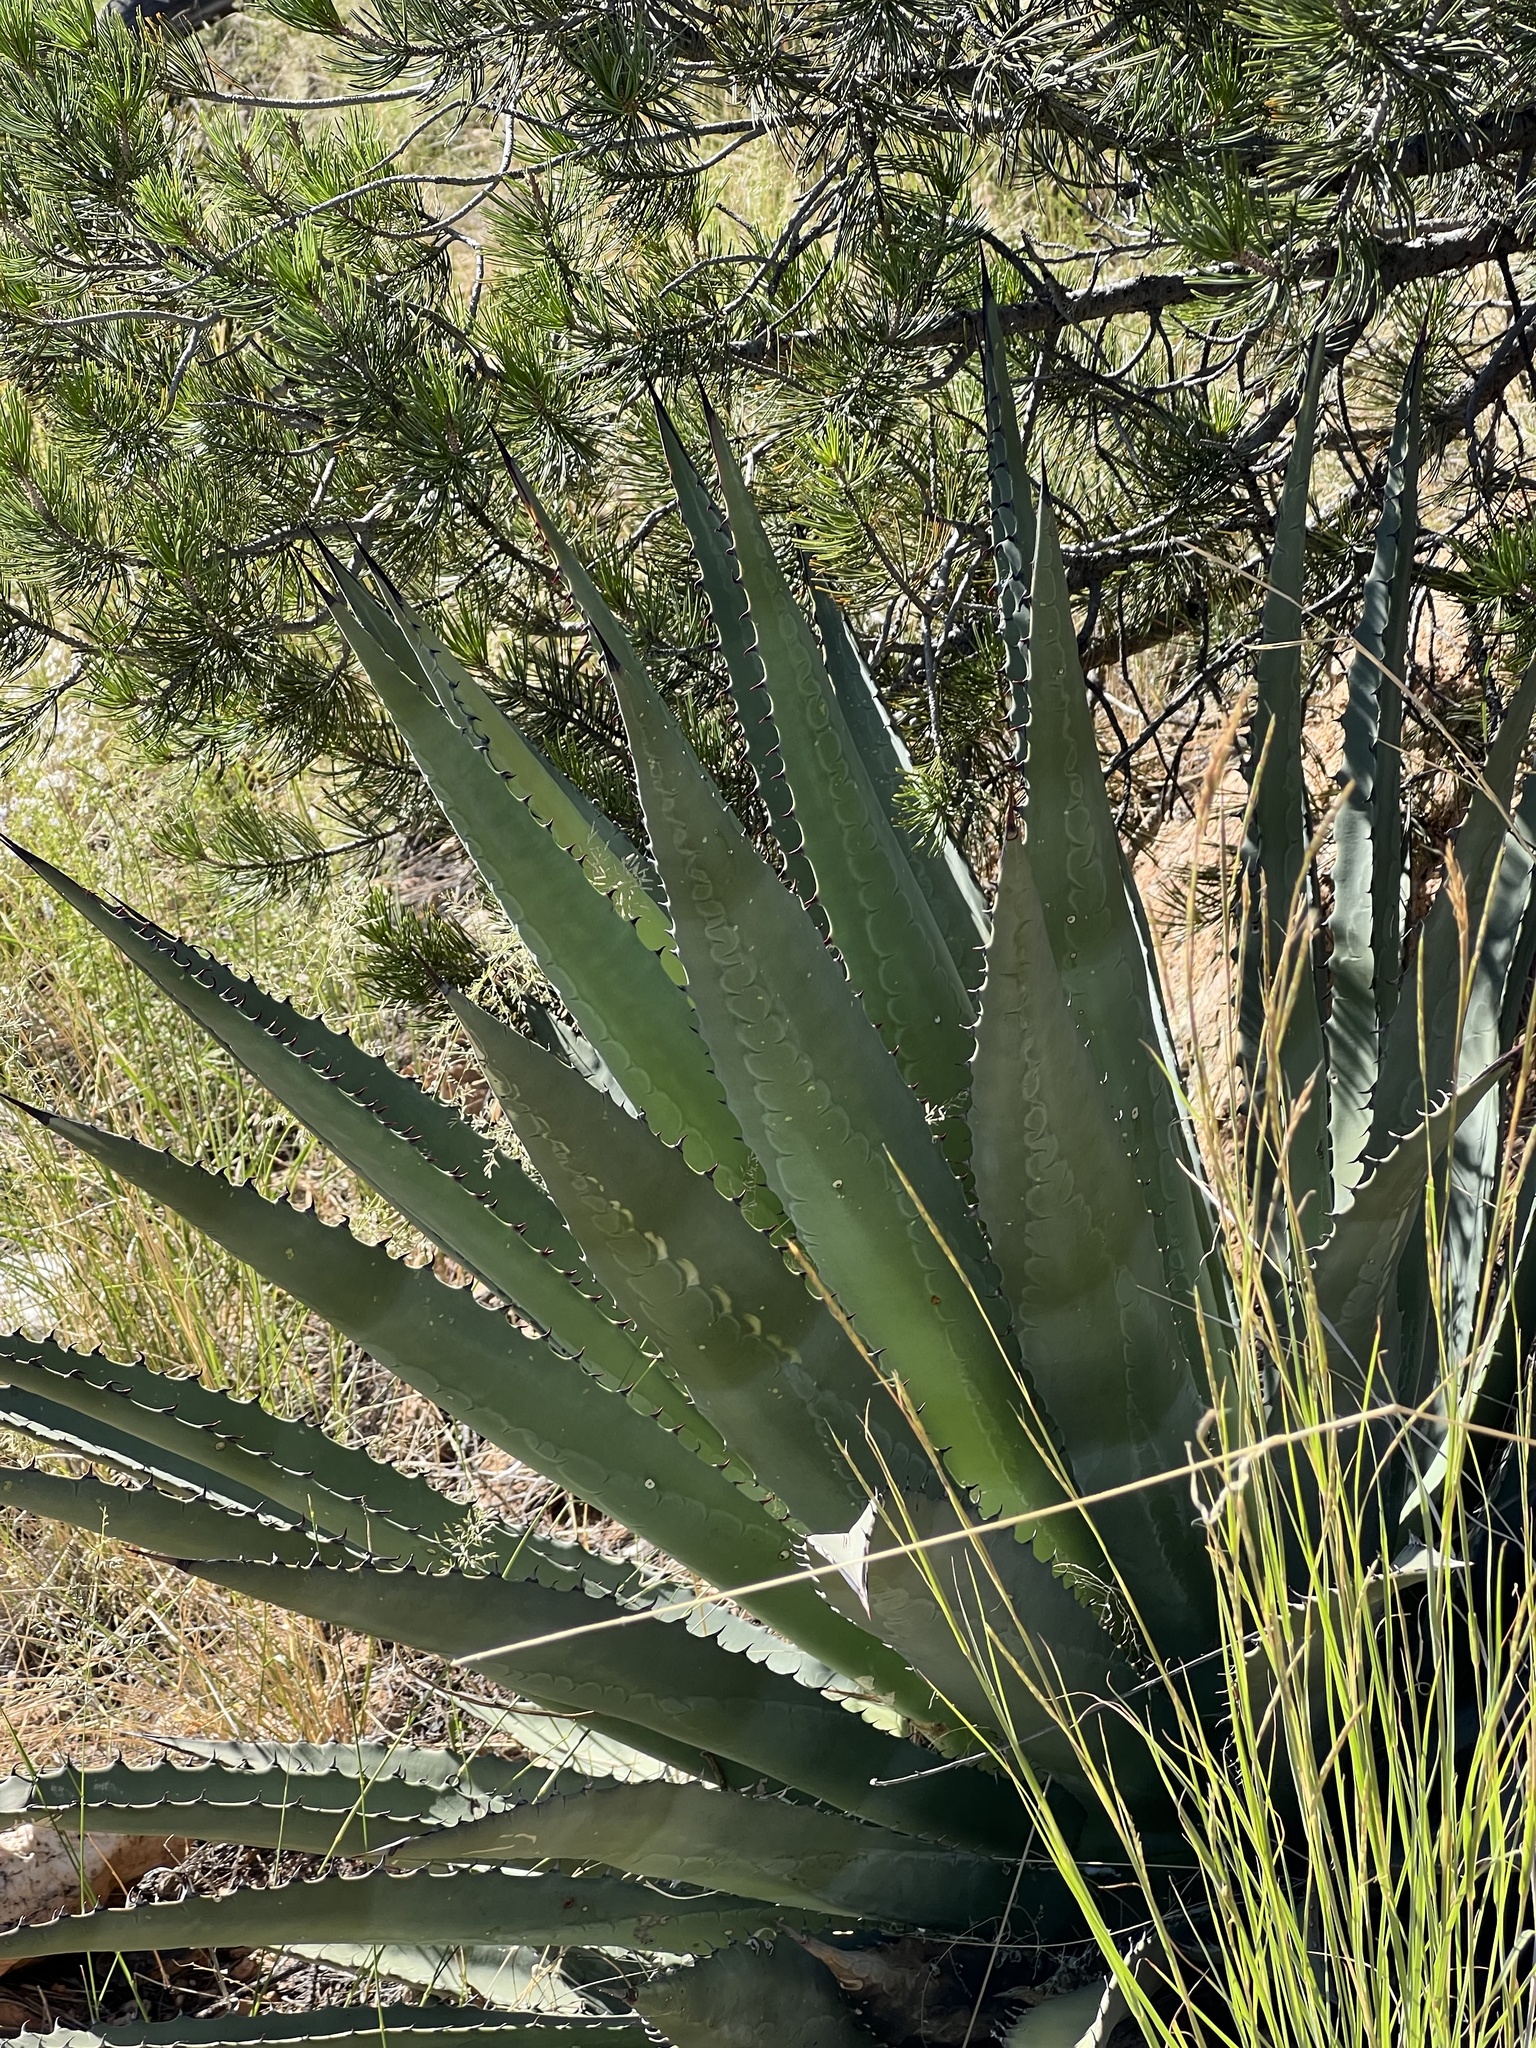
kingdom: Plantae
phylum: Tracheophyta
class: Liliopsida
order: Asparagales
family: Asparagaceae
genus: Agave
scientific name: Agave palmeri
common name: Palmer agave
